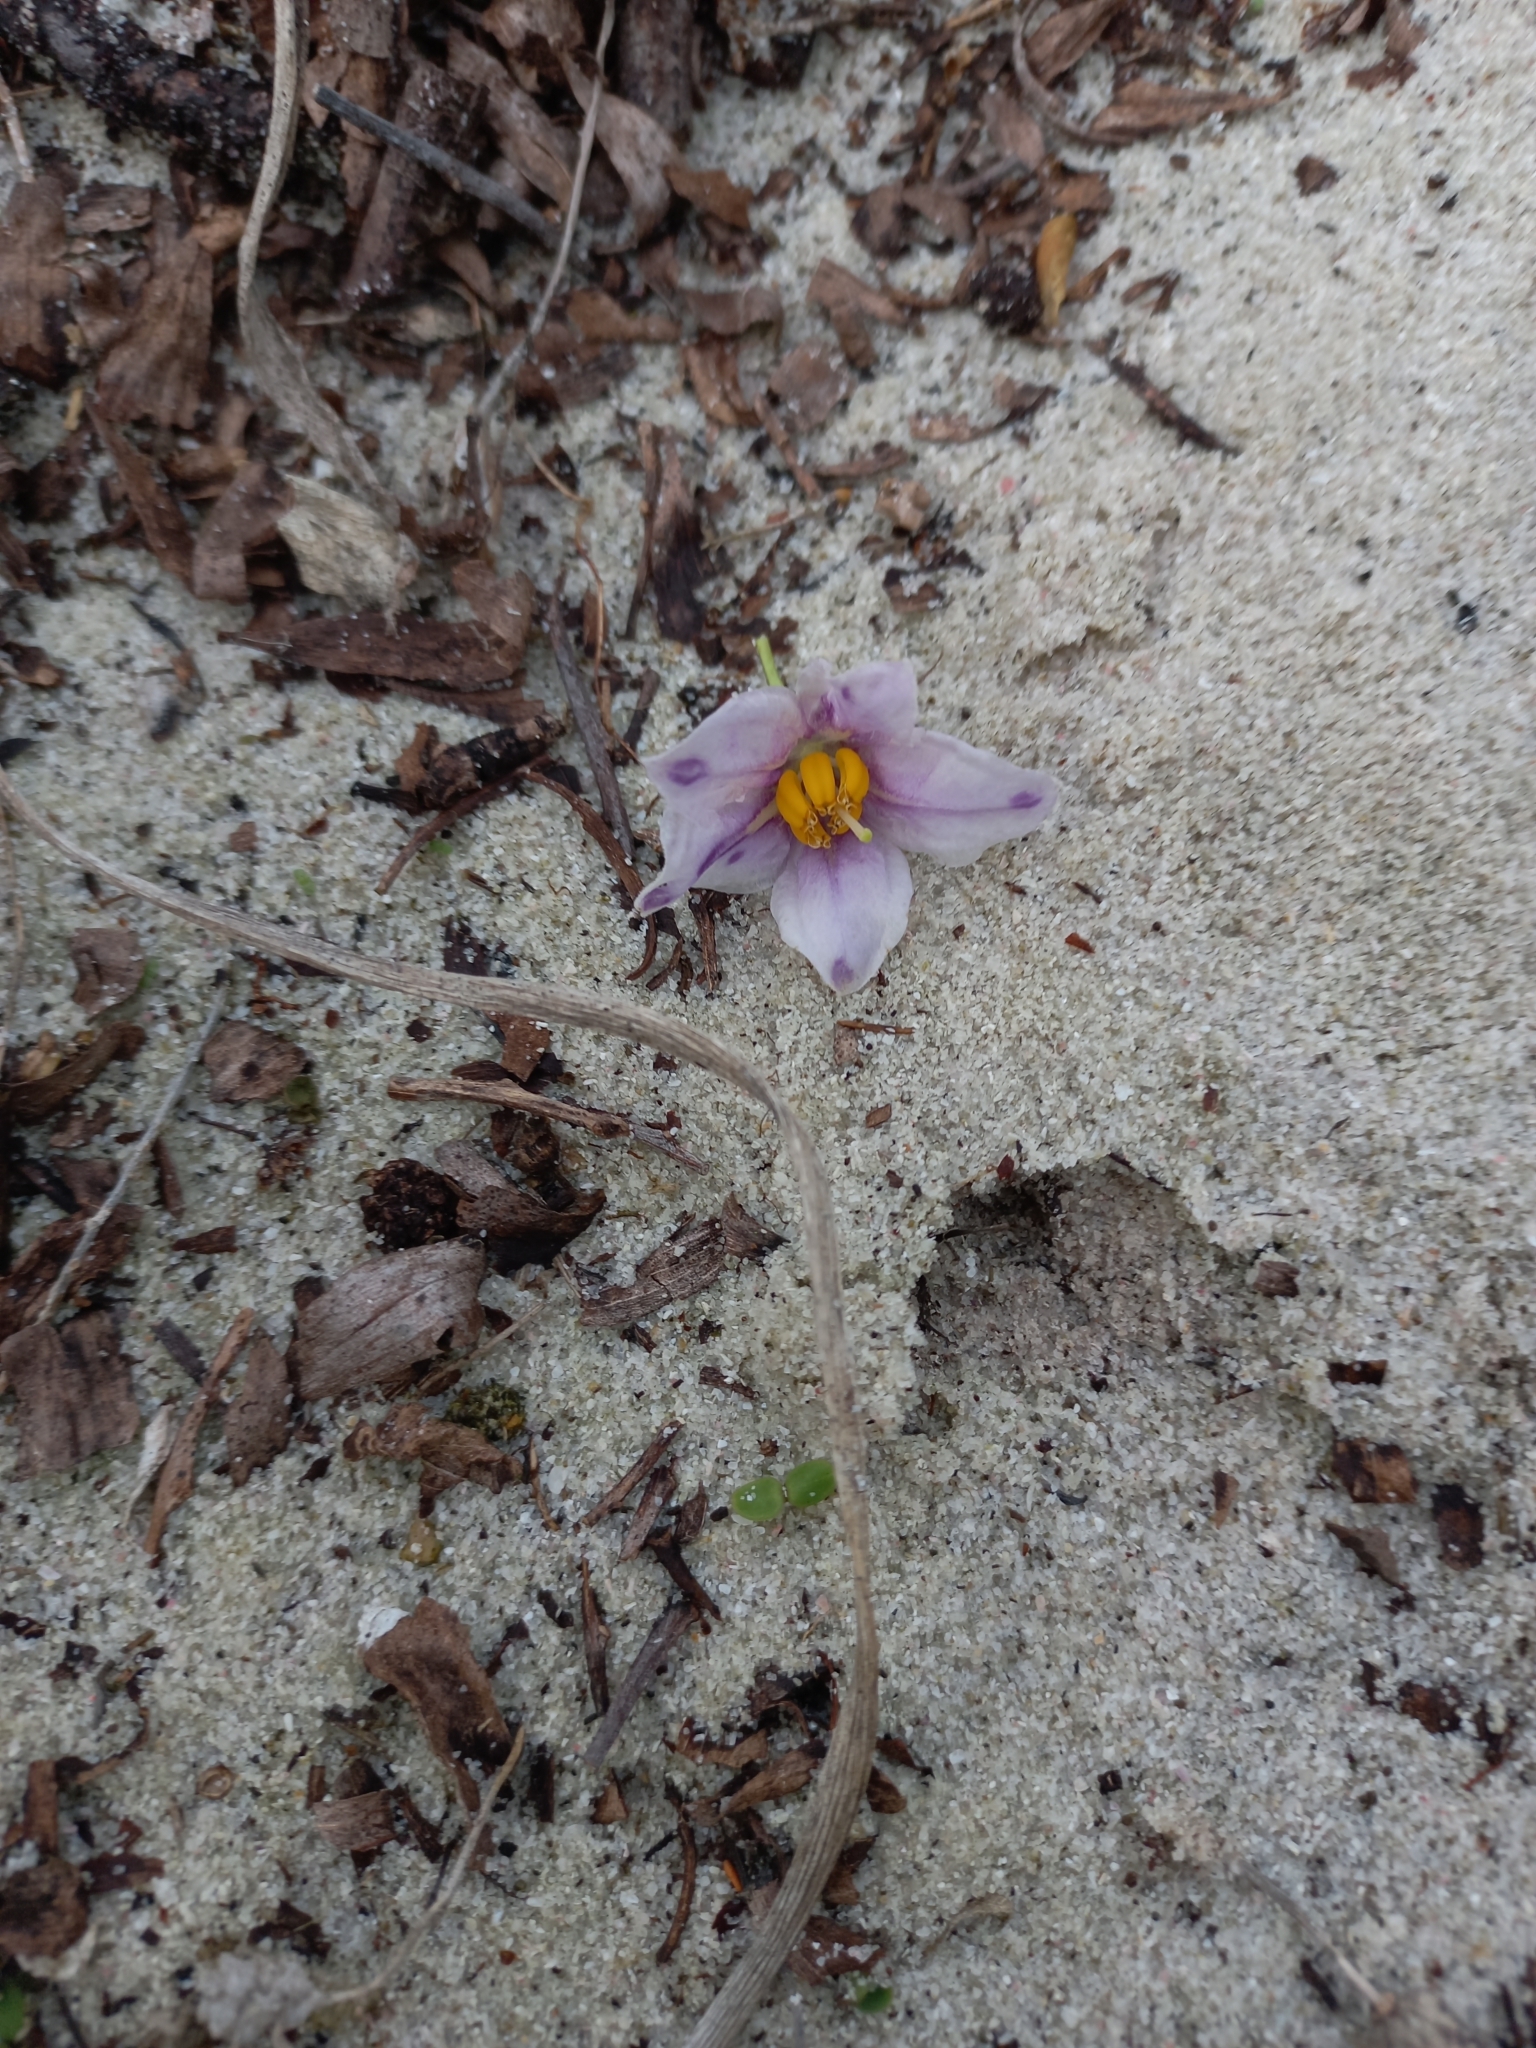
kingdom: Plantae
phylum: Tracheophyta
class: Magnoliopsida
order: Solanales
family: Solanaceae
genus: Solanum
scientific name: Solanum guineense
